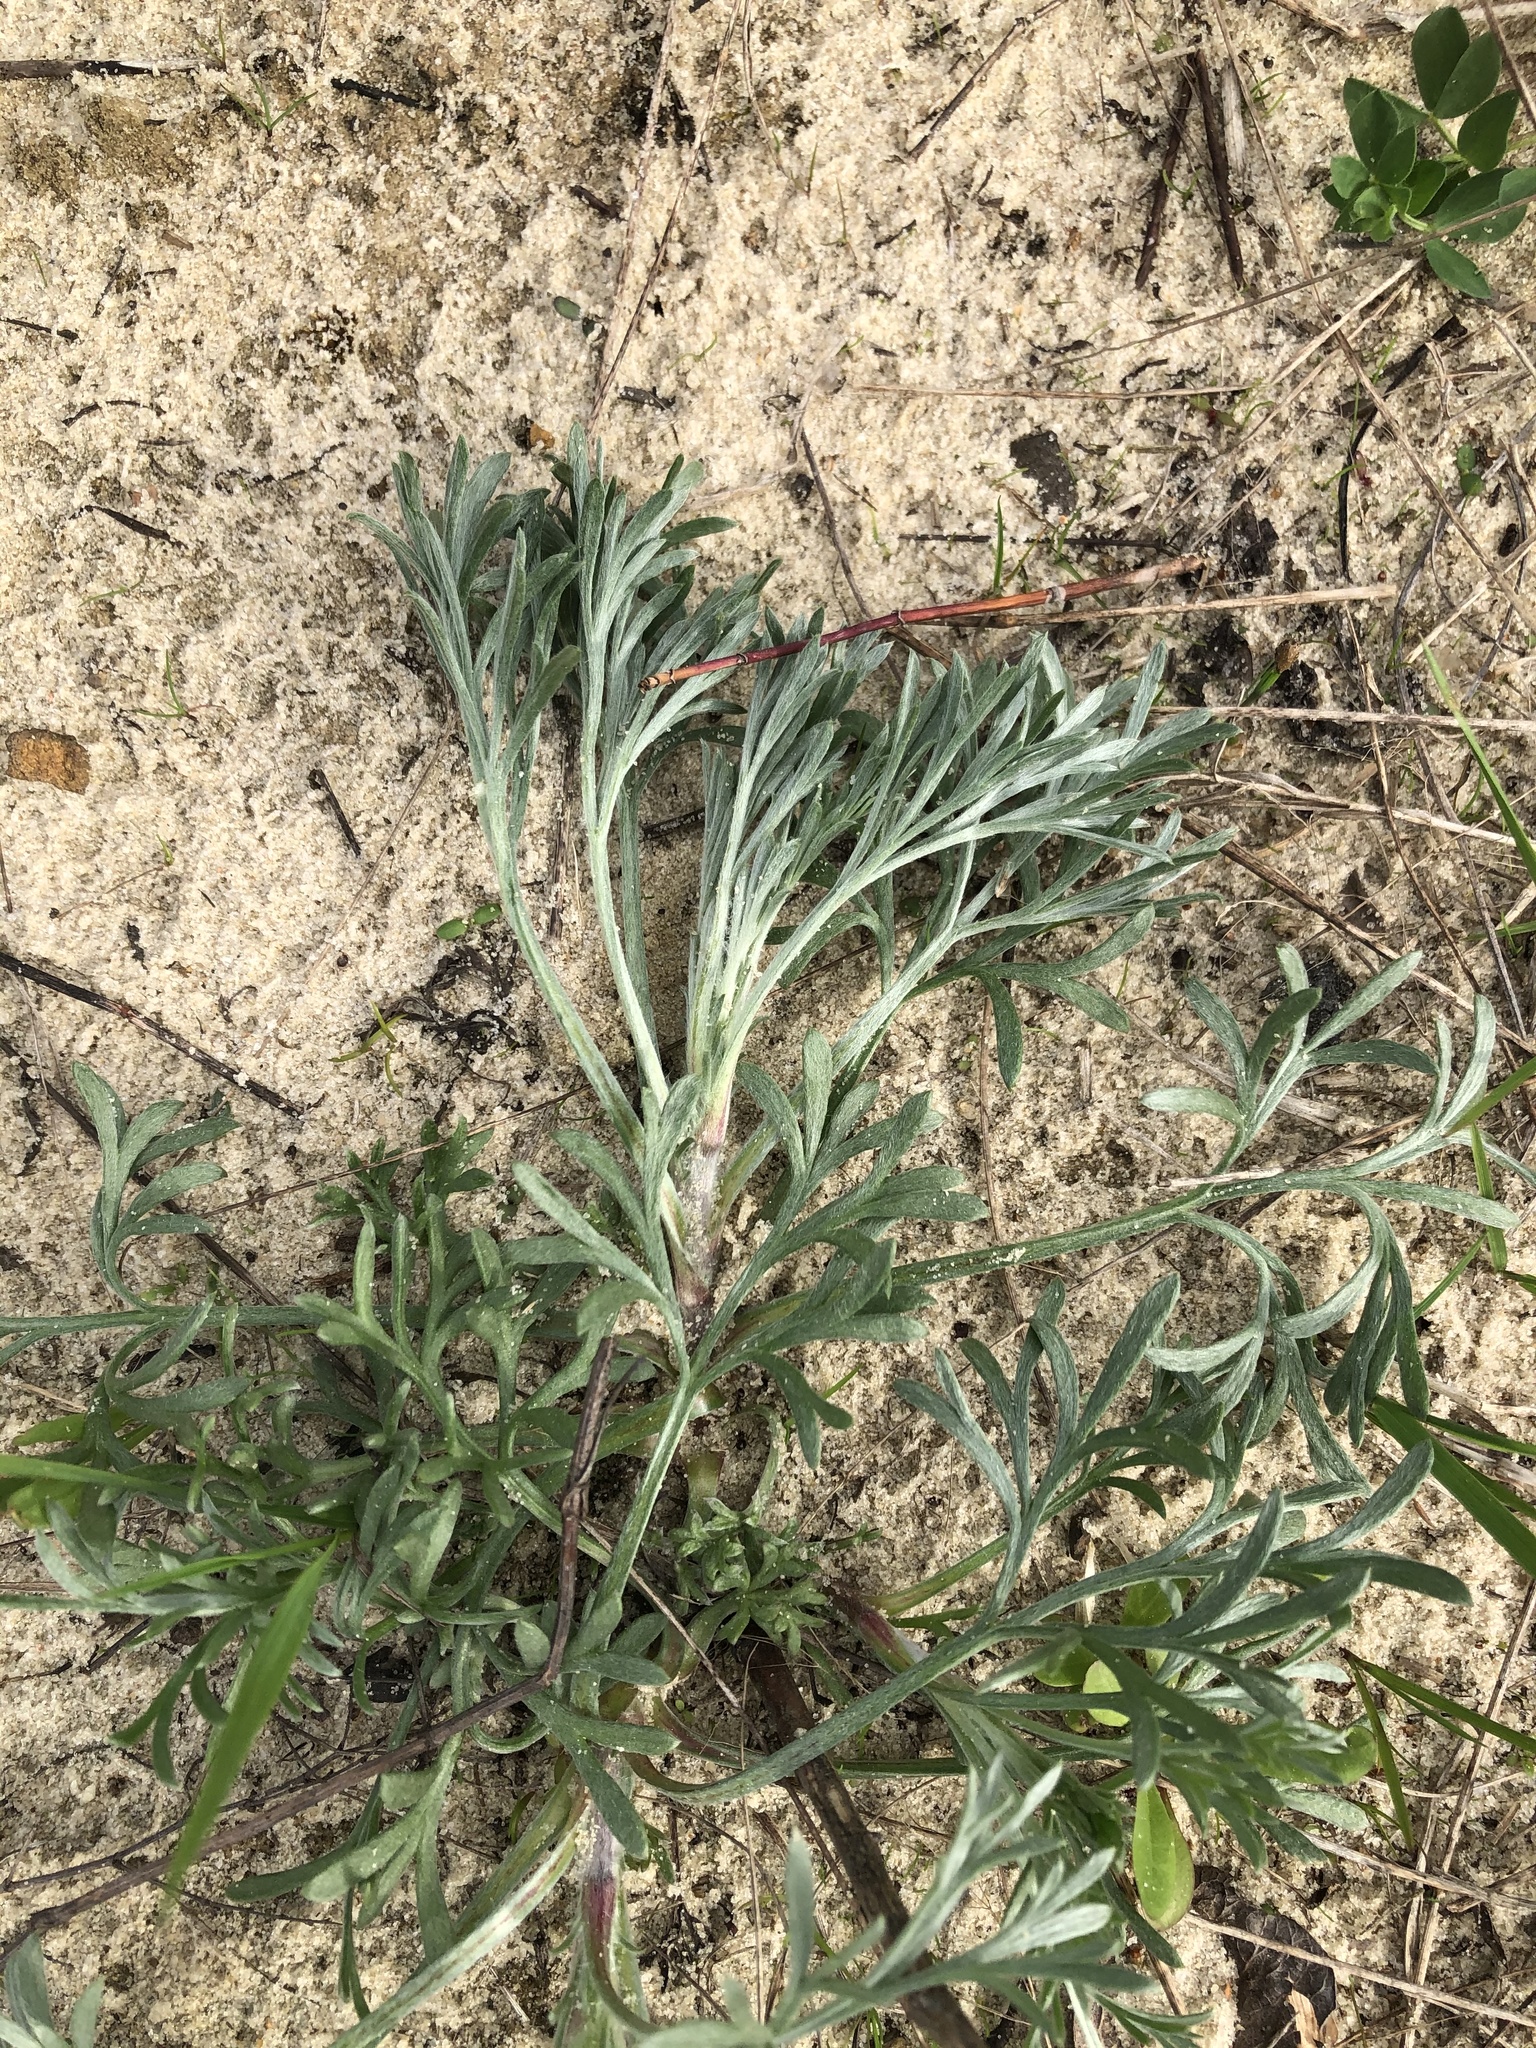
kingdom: Plantae
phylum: Tracheophyta
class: Magnoliopsida
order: Asterales
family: Asteraceae
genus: Artemisia
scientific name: Artemisia campestris
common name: Field wormwood
